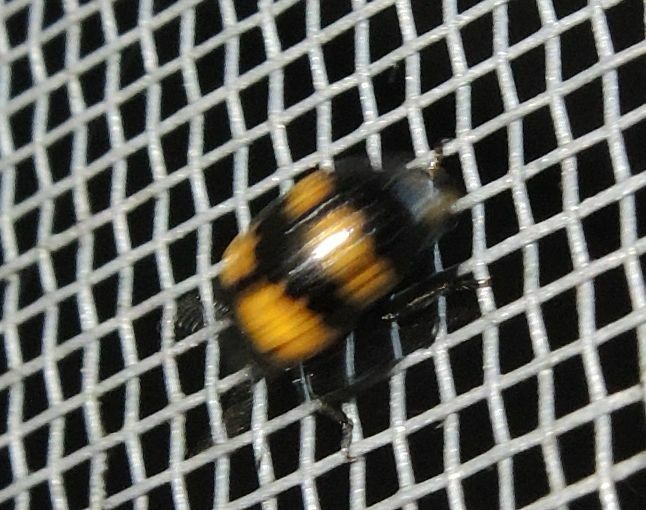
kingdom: Animalia
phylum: Arthropoda
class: Insecta
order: Coleoptera
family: Tenebrionidae
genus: Diaperis
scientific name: Diaperis boleti
